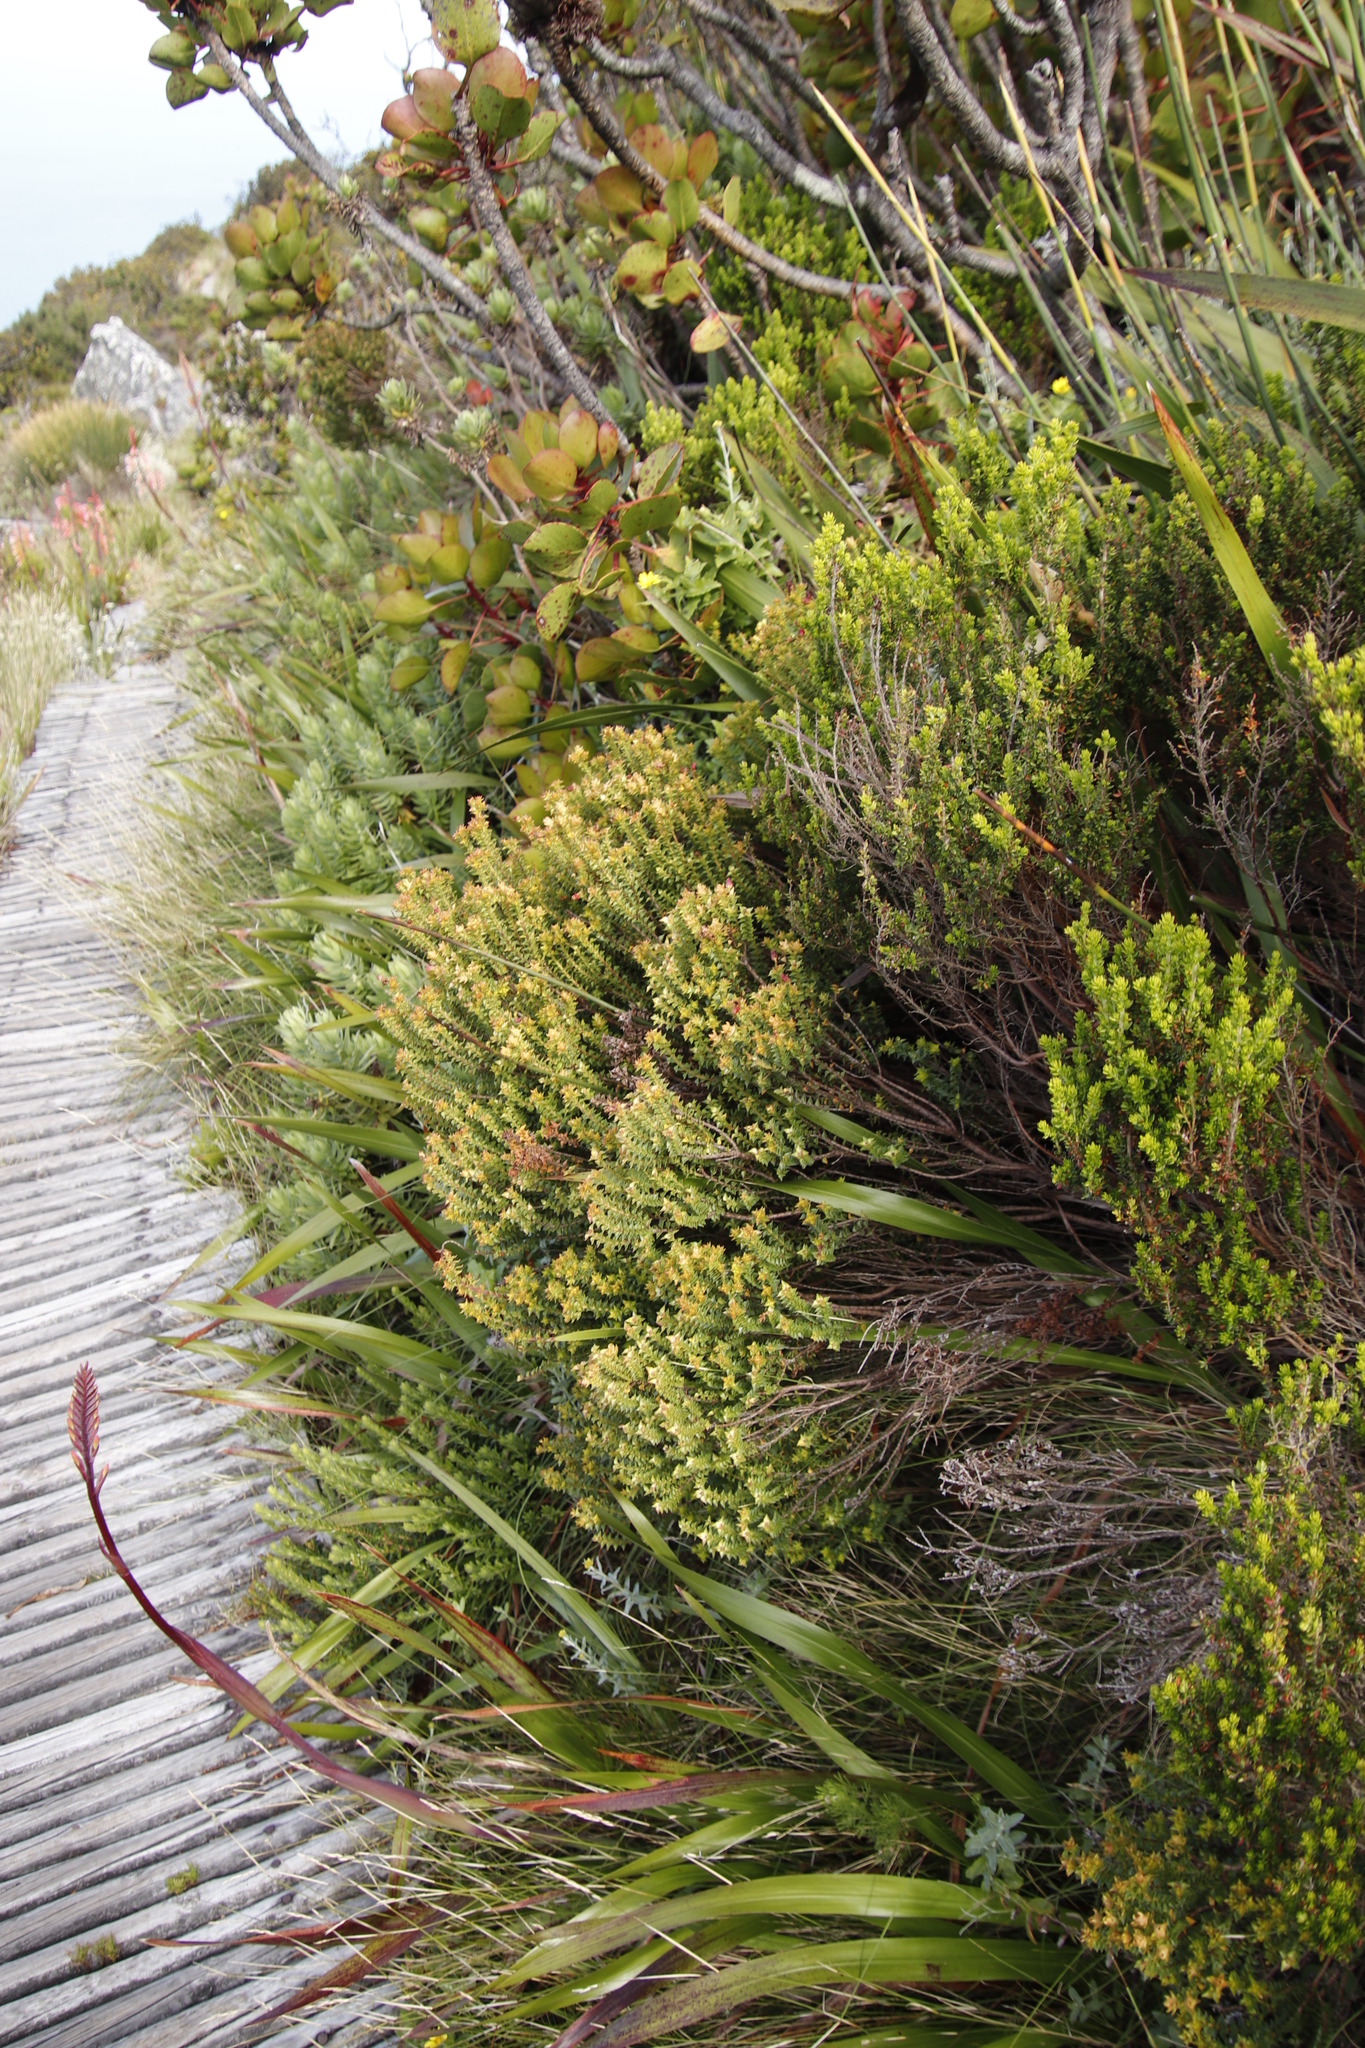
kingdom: Plantae
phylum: Tracheophyta
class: Magnoliopsida
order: Myrtales
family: Penaeaceae
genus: Penaea
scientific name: Penaea mucronata
